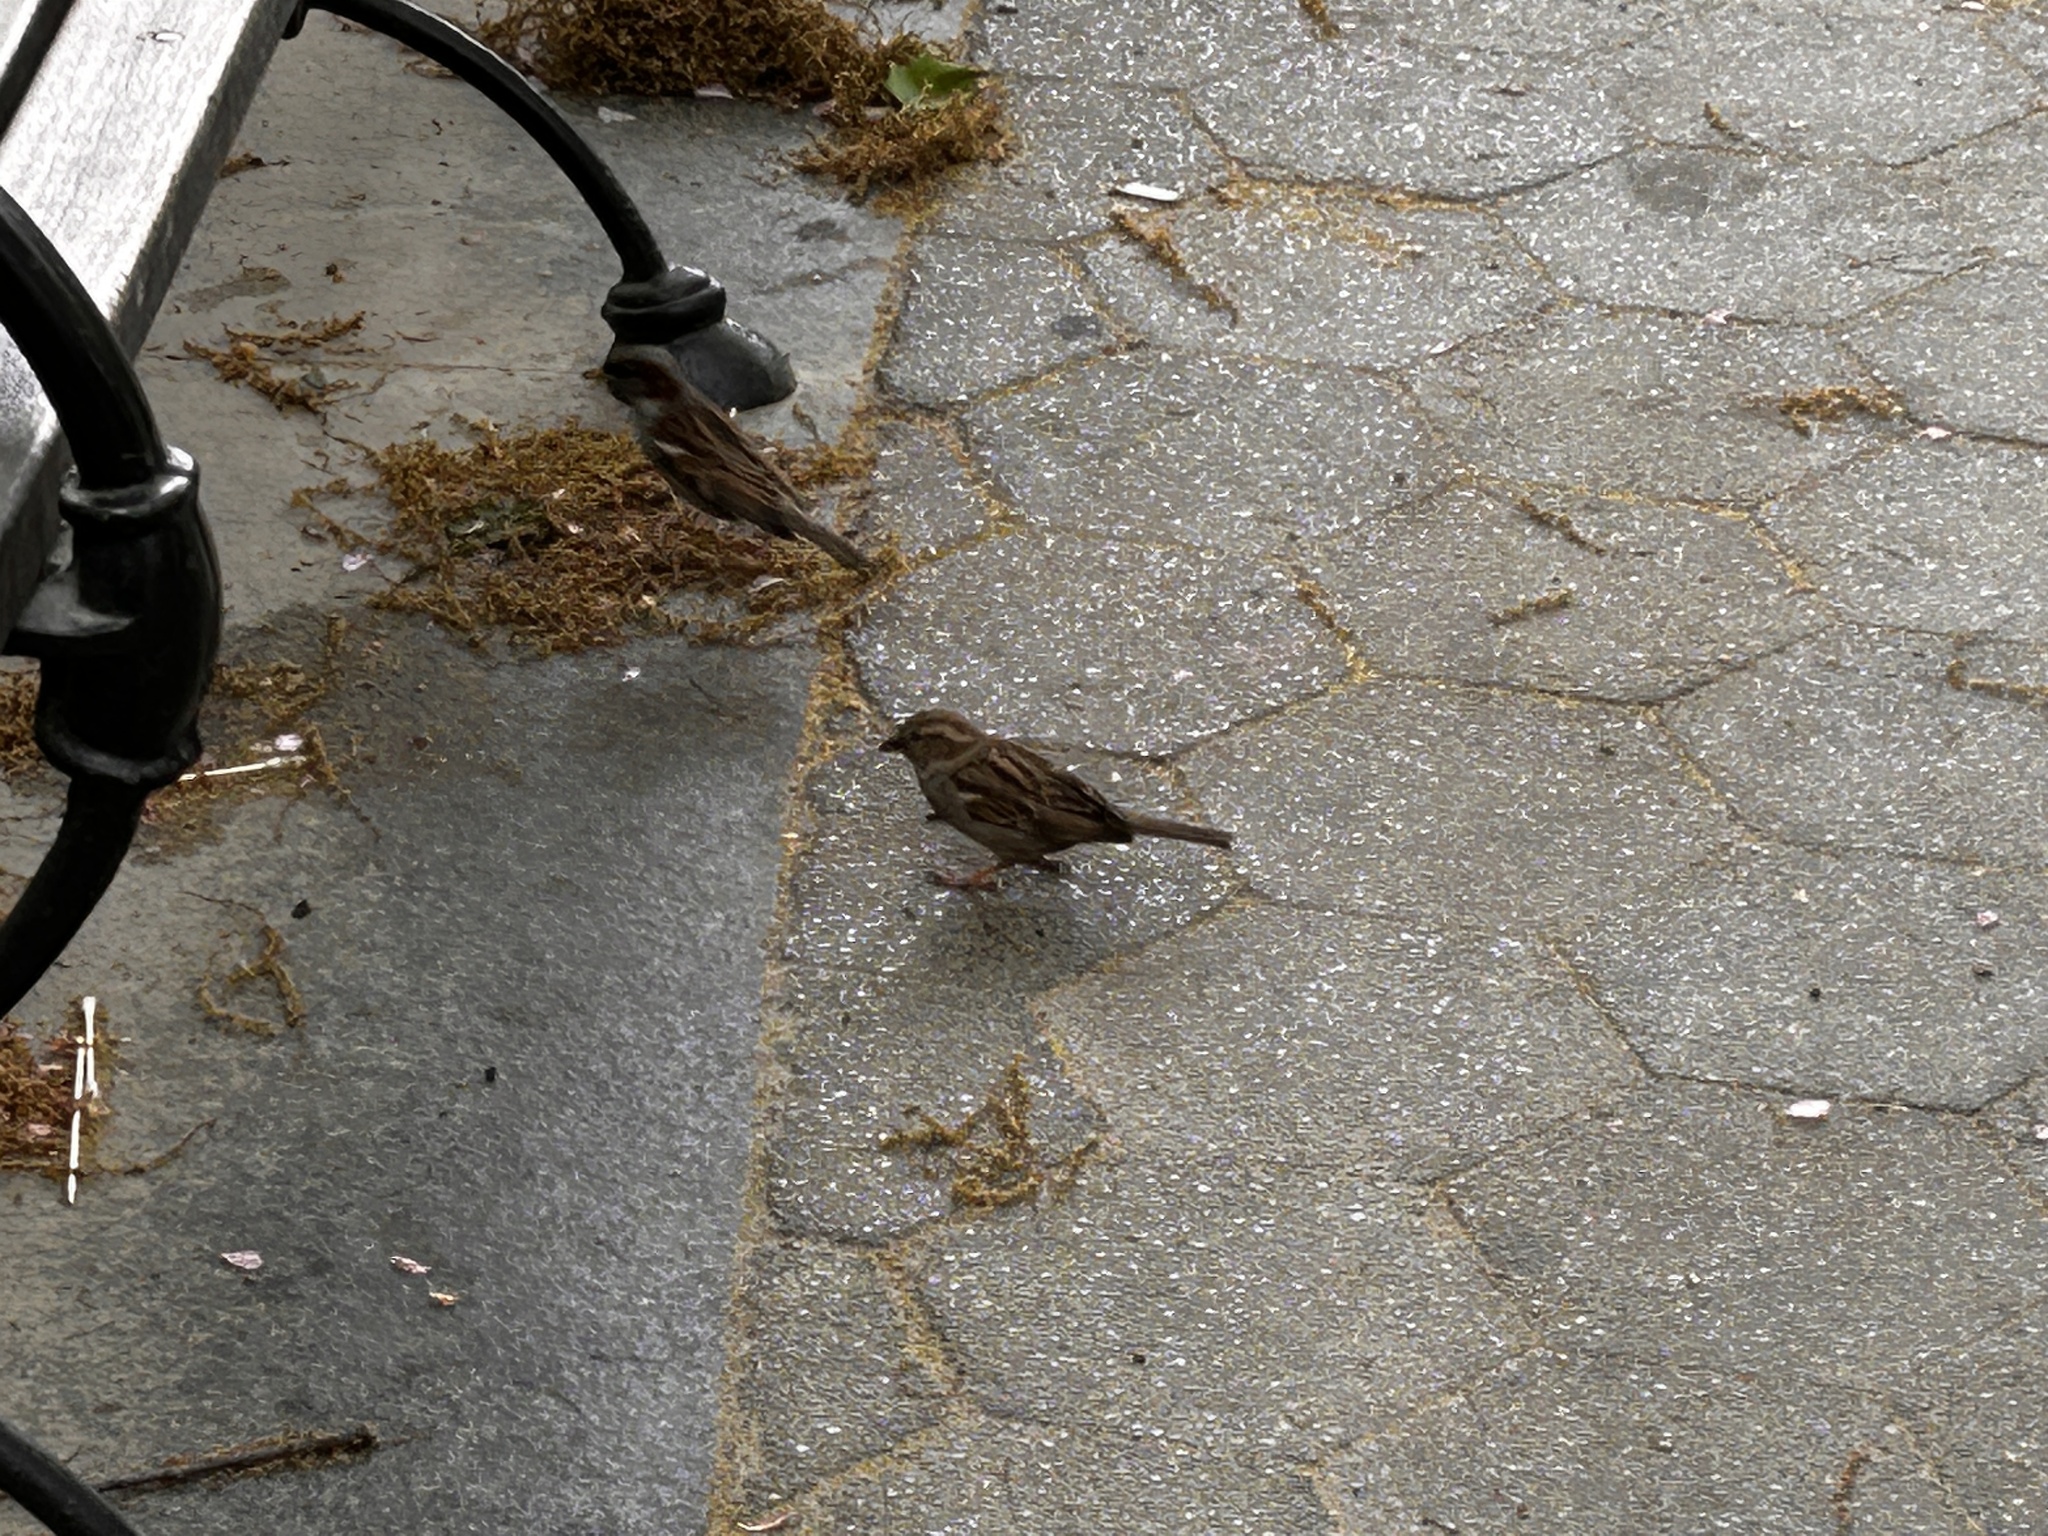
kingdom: Animalia
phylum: Chordata
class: Aves
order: Passeriformes
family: Passeridae
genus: Passer
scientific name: Passer domesticus
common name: House sparrow
